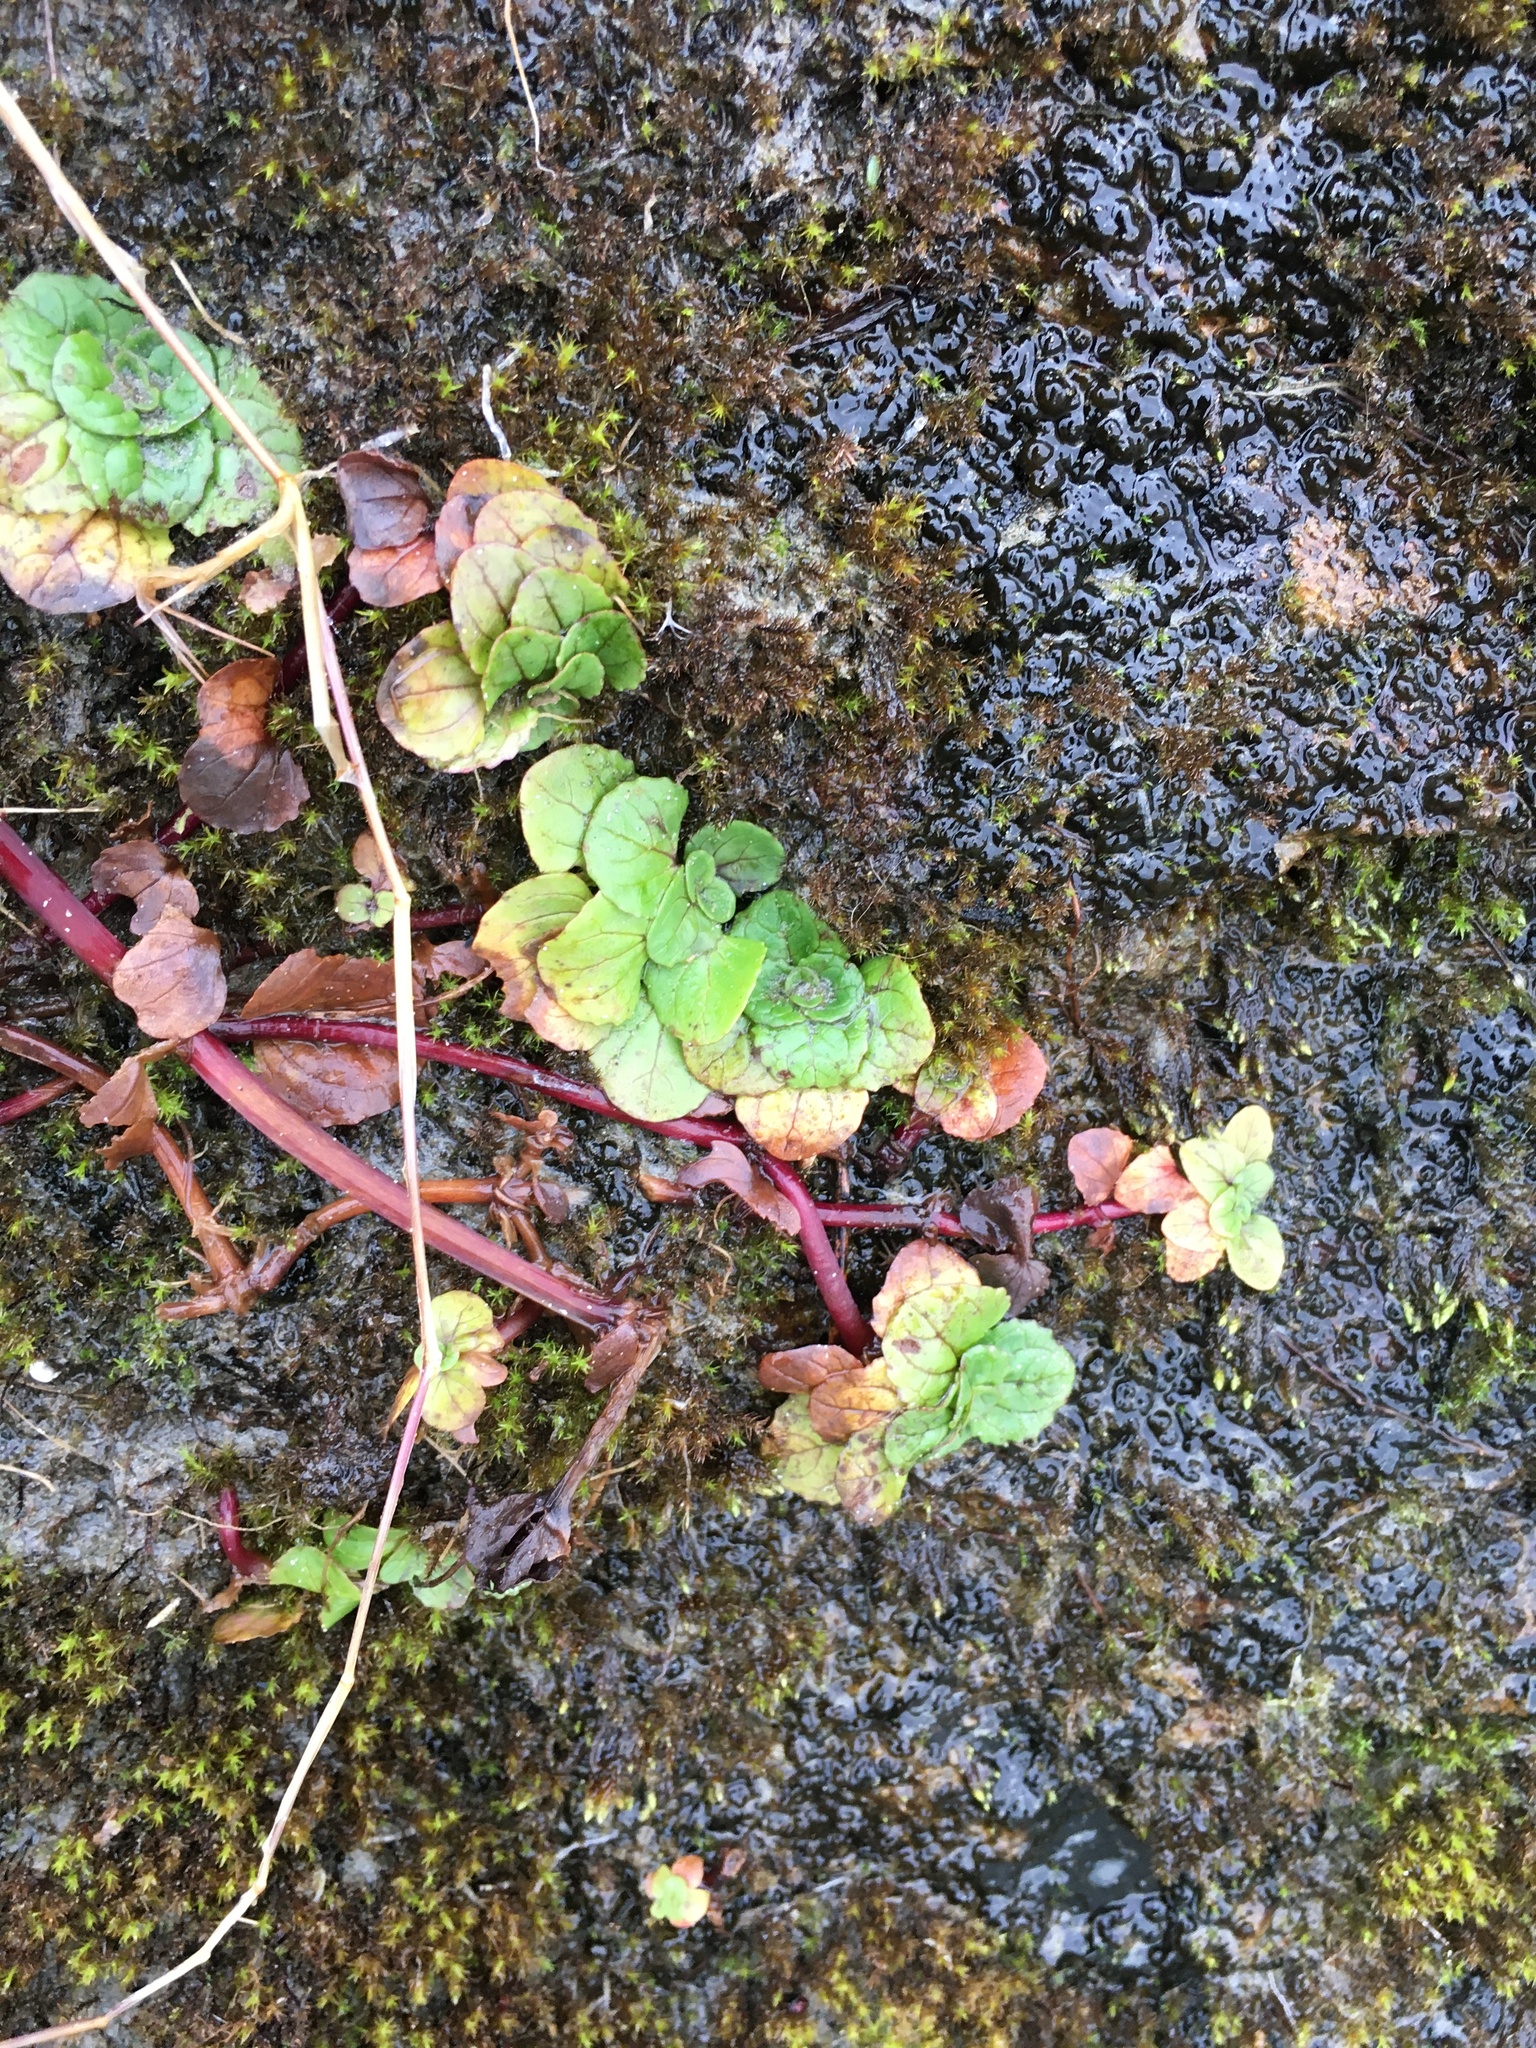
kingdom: Plantae
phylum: Tracheophyta
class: Magnoliopsida
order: Lamiales
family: Phrymaceae
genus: Erythranthe
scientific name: Erythranthe grandis
